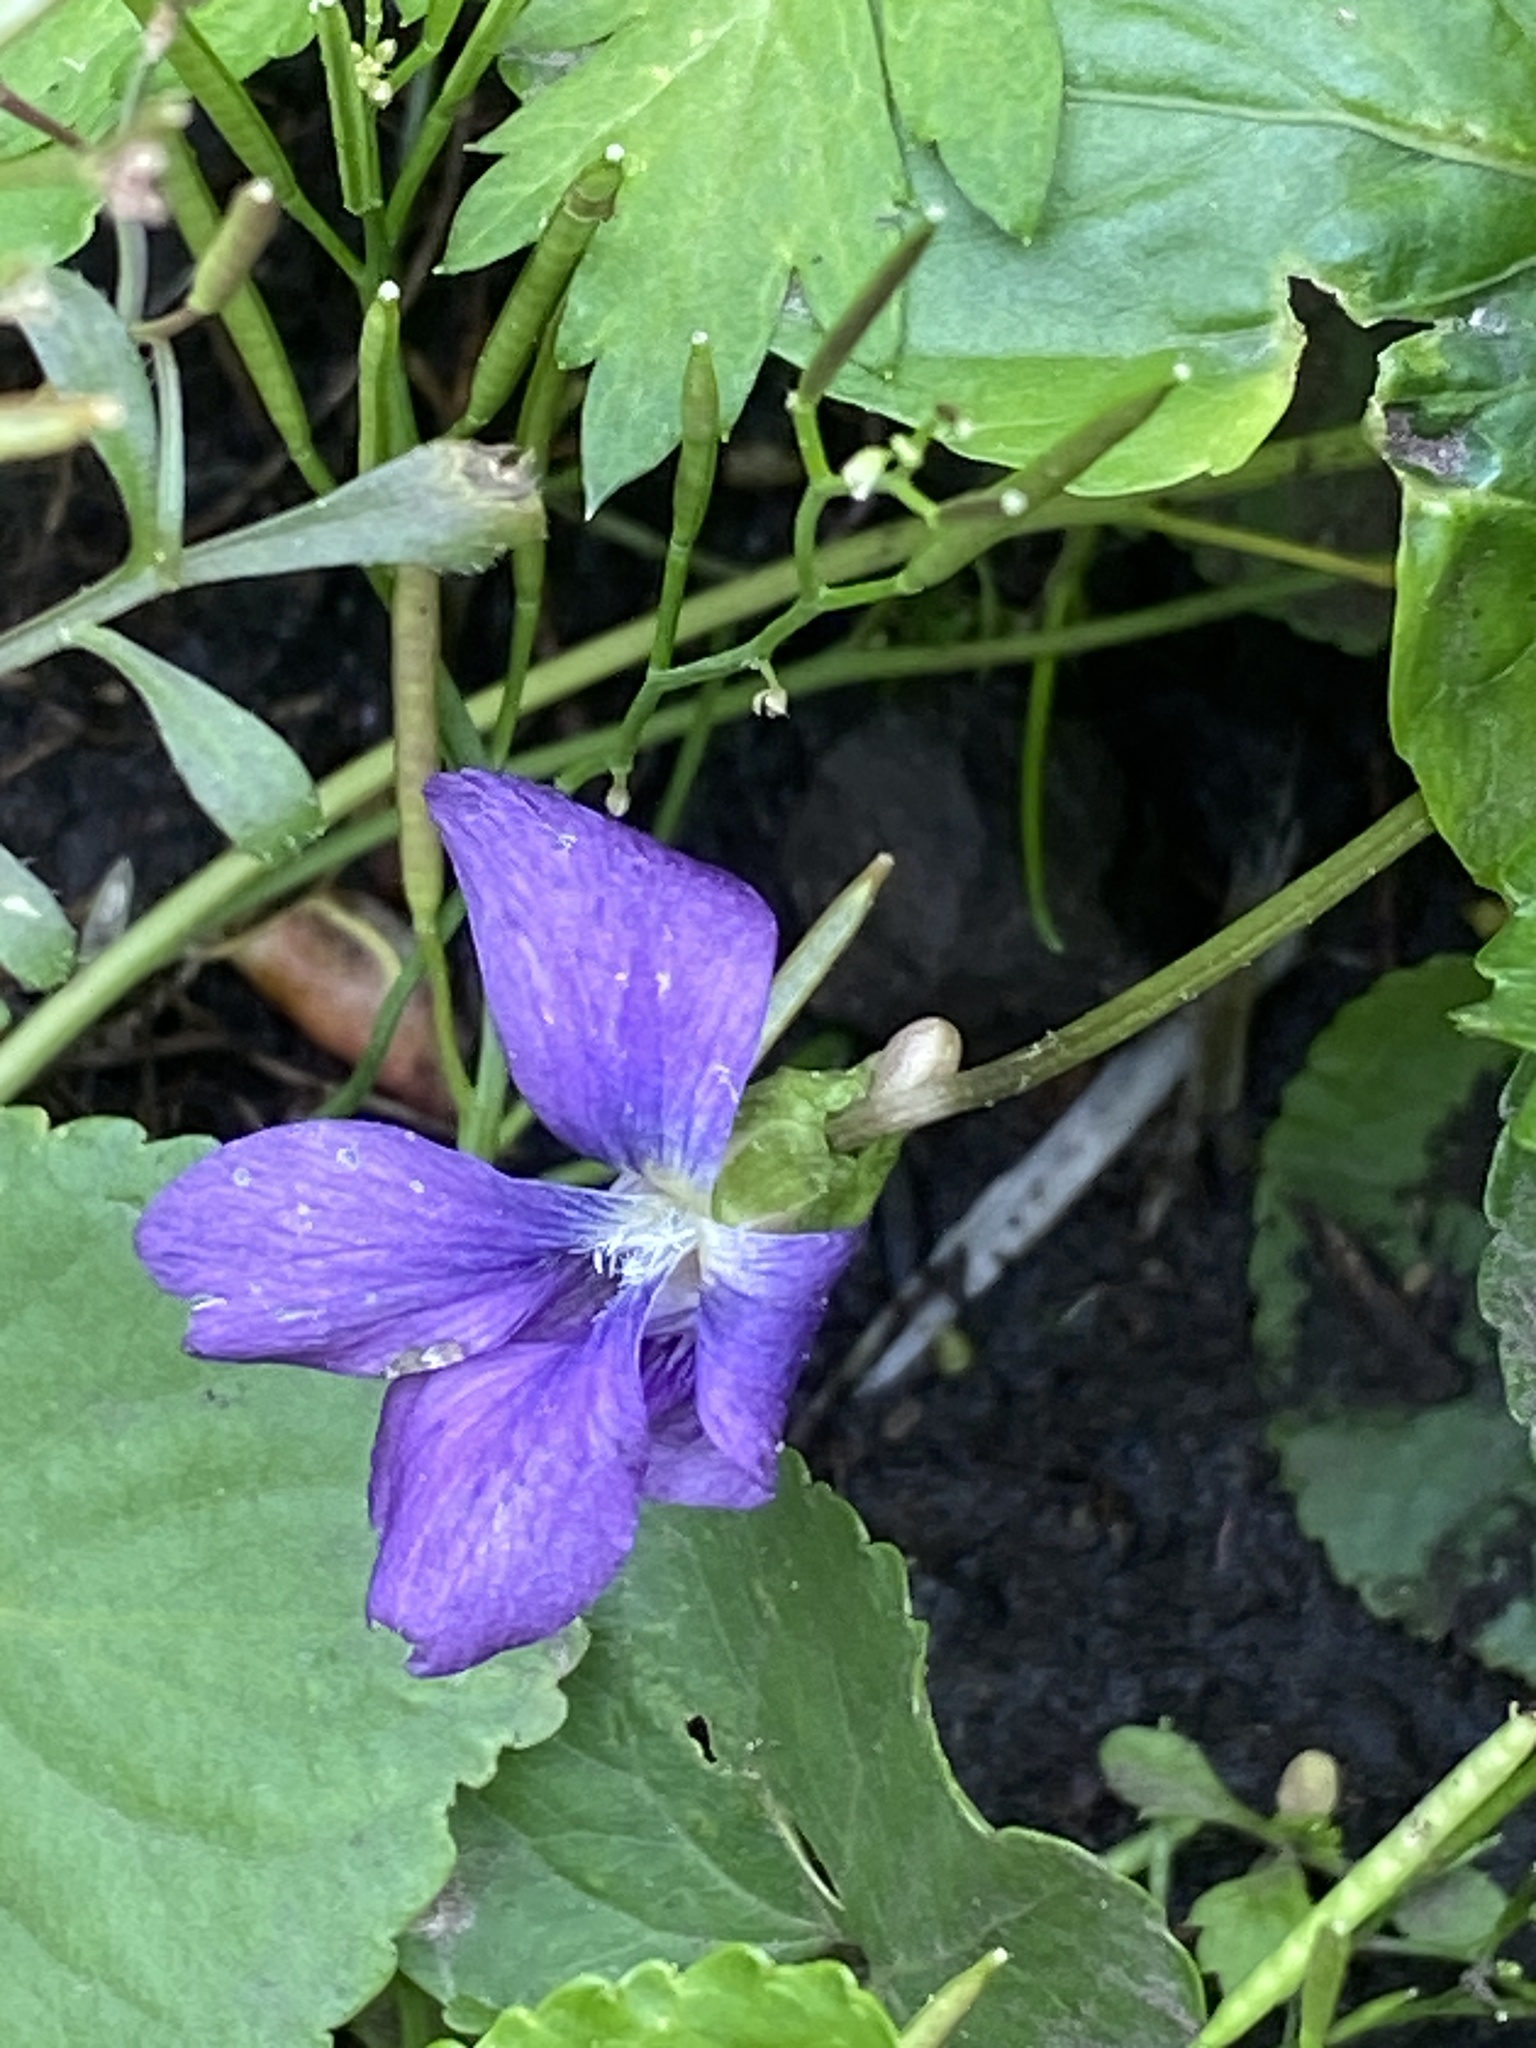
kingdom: Plantae
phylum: Tracheophyta
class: Magnoliopsida
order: Malpighiales
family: Violaceae
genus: Viola
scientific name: Viola sororia
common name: Dooryard violet
